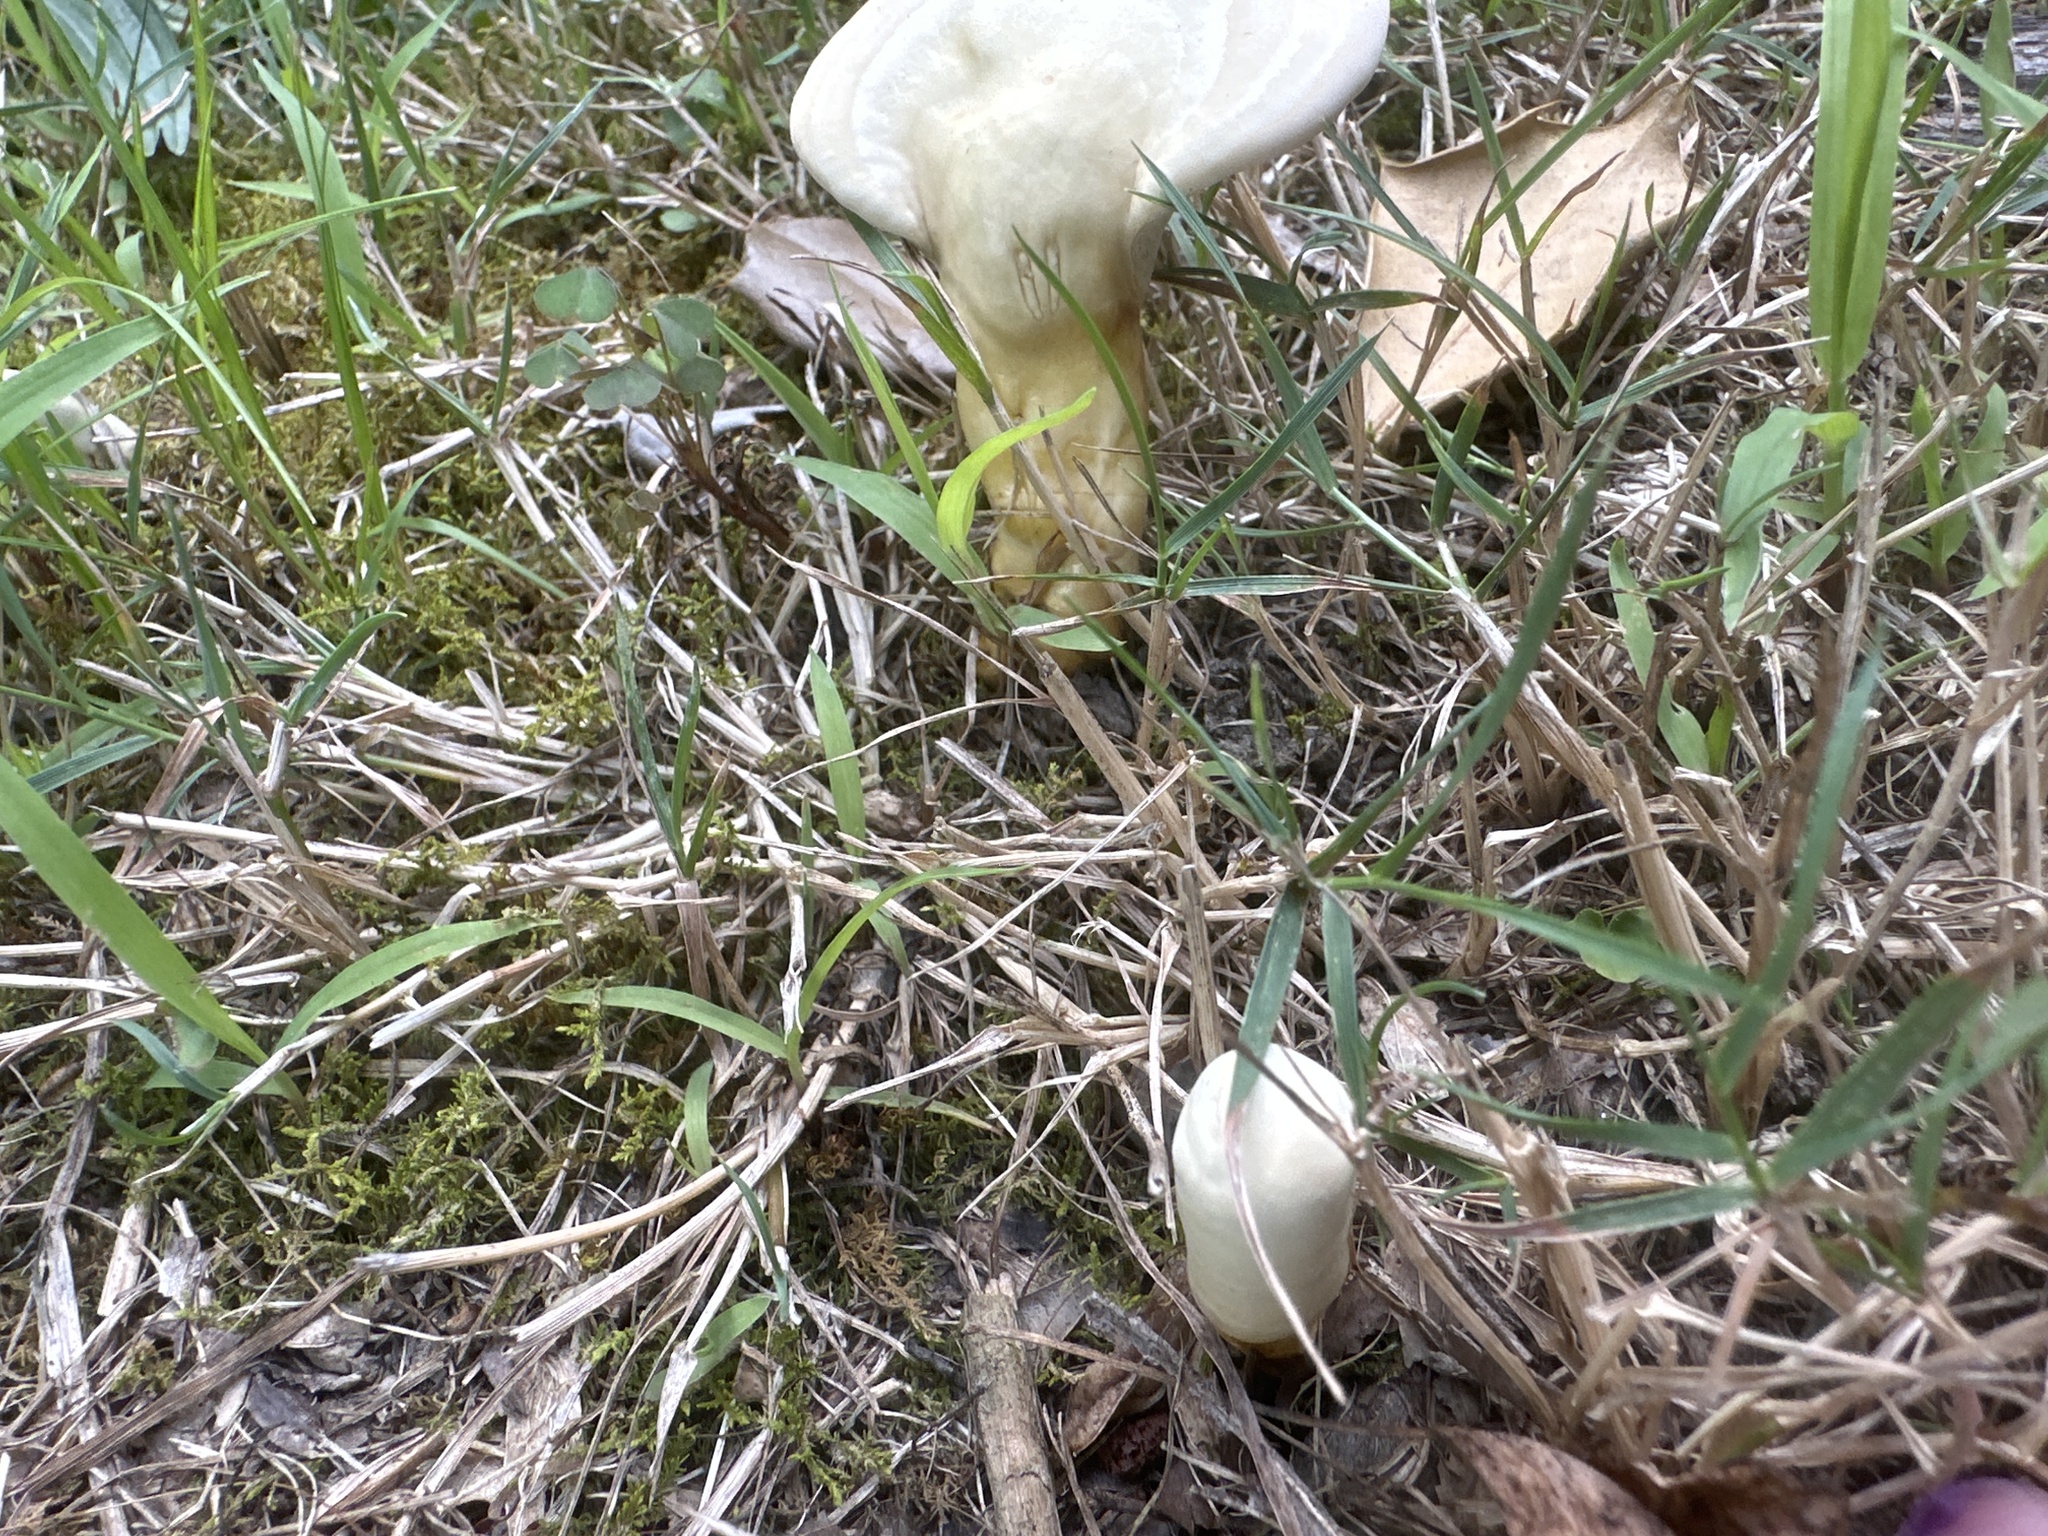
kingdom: Fungi
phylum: Basidiomycota
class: Agaricomycetes
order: Polyporales
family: Polyporaceae
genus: Ganoderma
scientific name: Ganoderma curtisii
